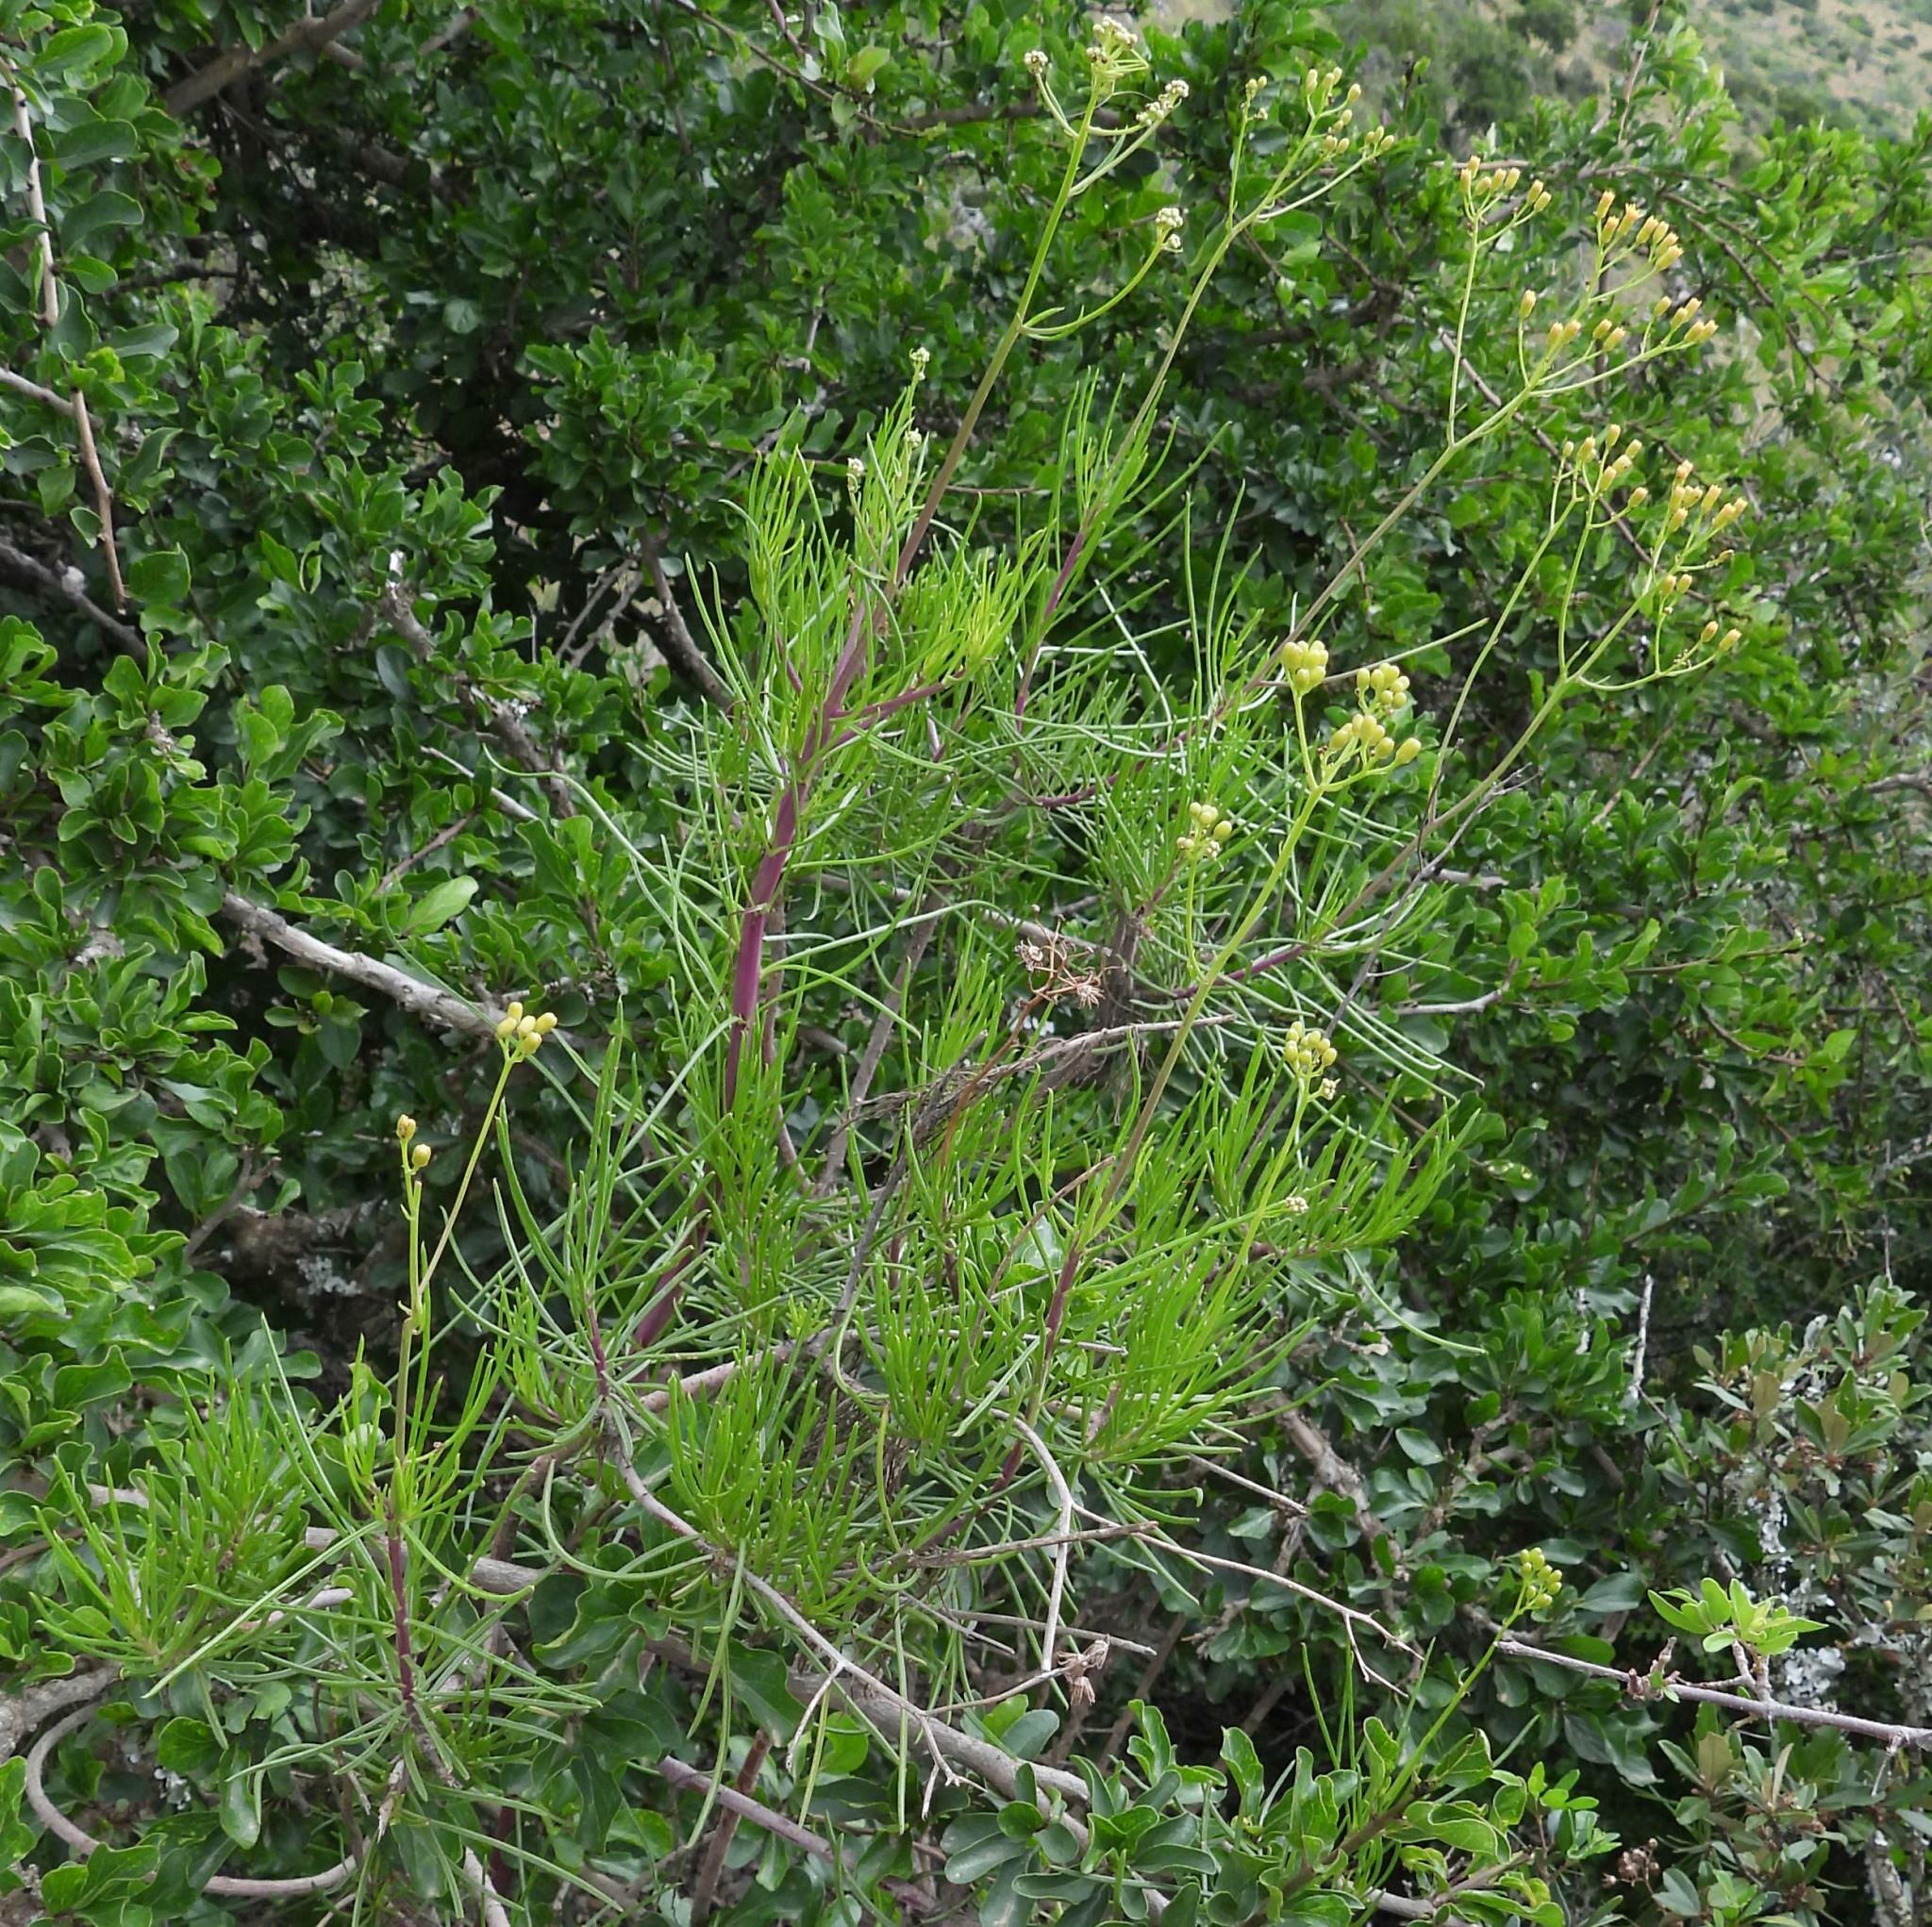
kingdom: Plantae
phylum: Tracheophyta
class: Magnoliopsida
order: Asterales
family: Asteraceae
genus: Senecio
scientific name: Senecio linifolius
